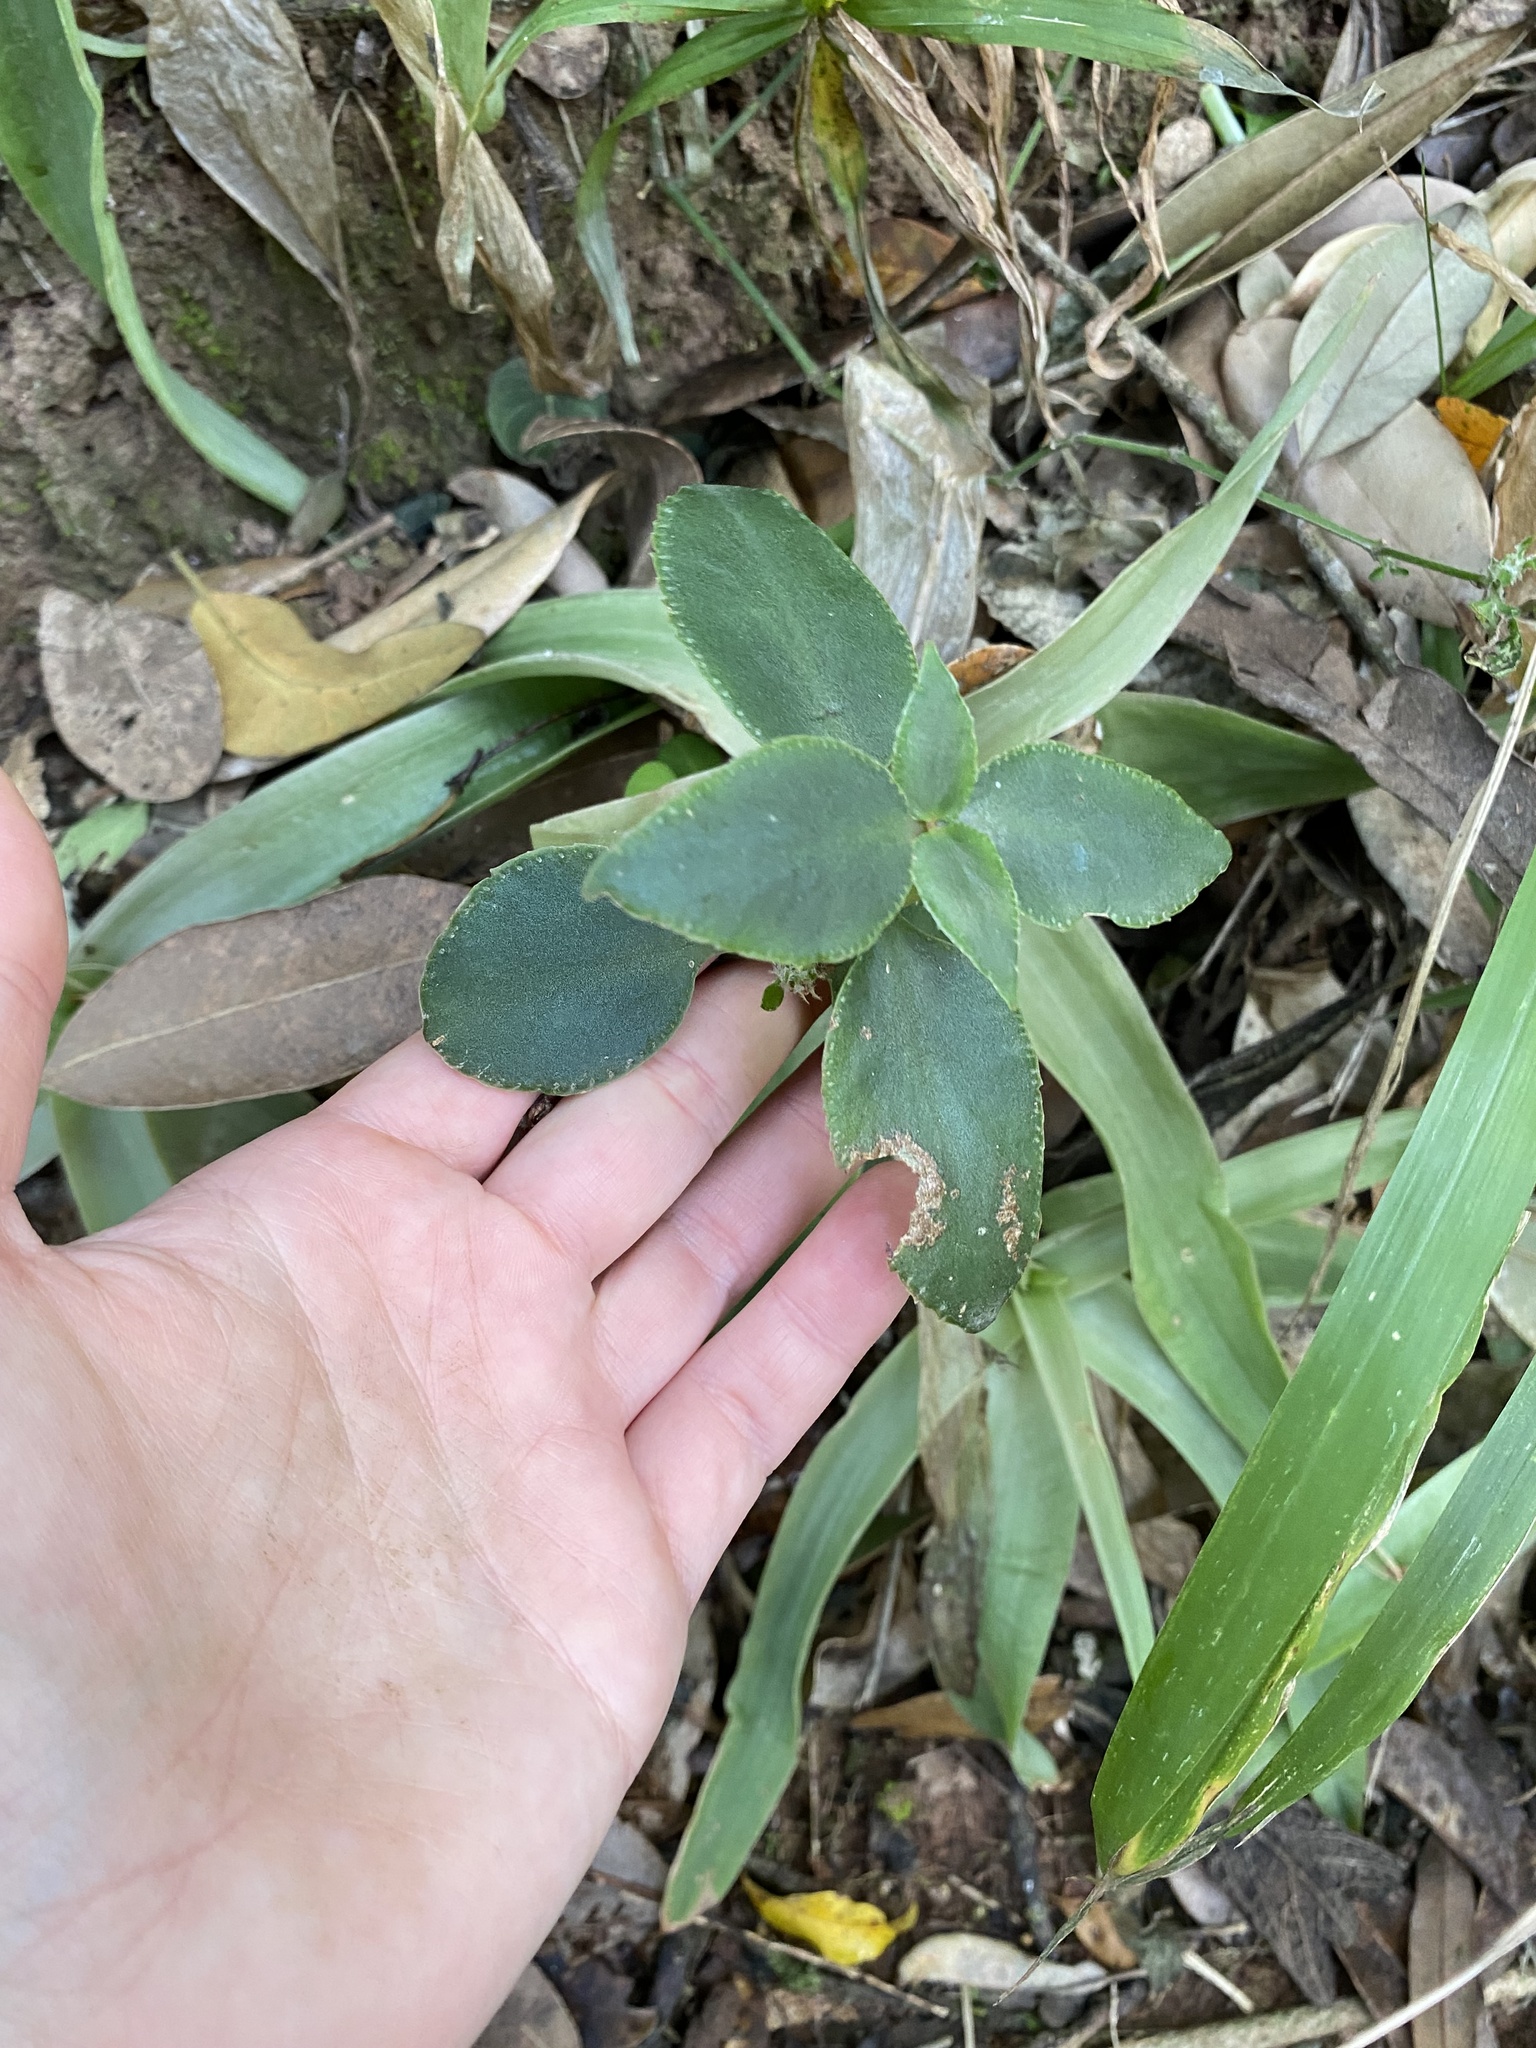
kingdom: Plantae
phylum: Tracheophyta
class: Magnoliopsida
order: Lamiales
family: Lamiaceae
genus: Plectranthus
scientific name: Plectranthus purpuratus
